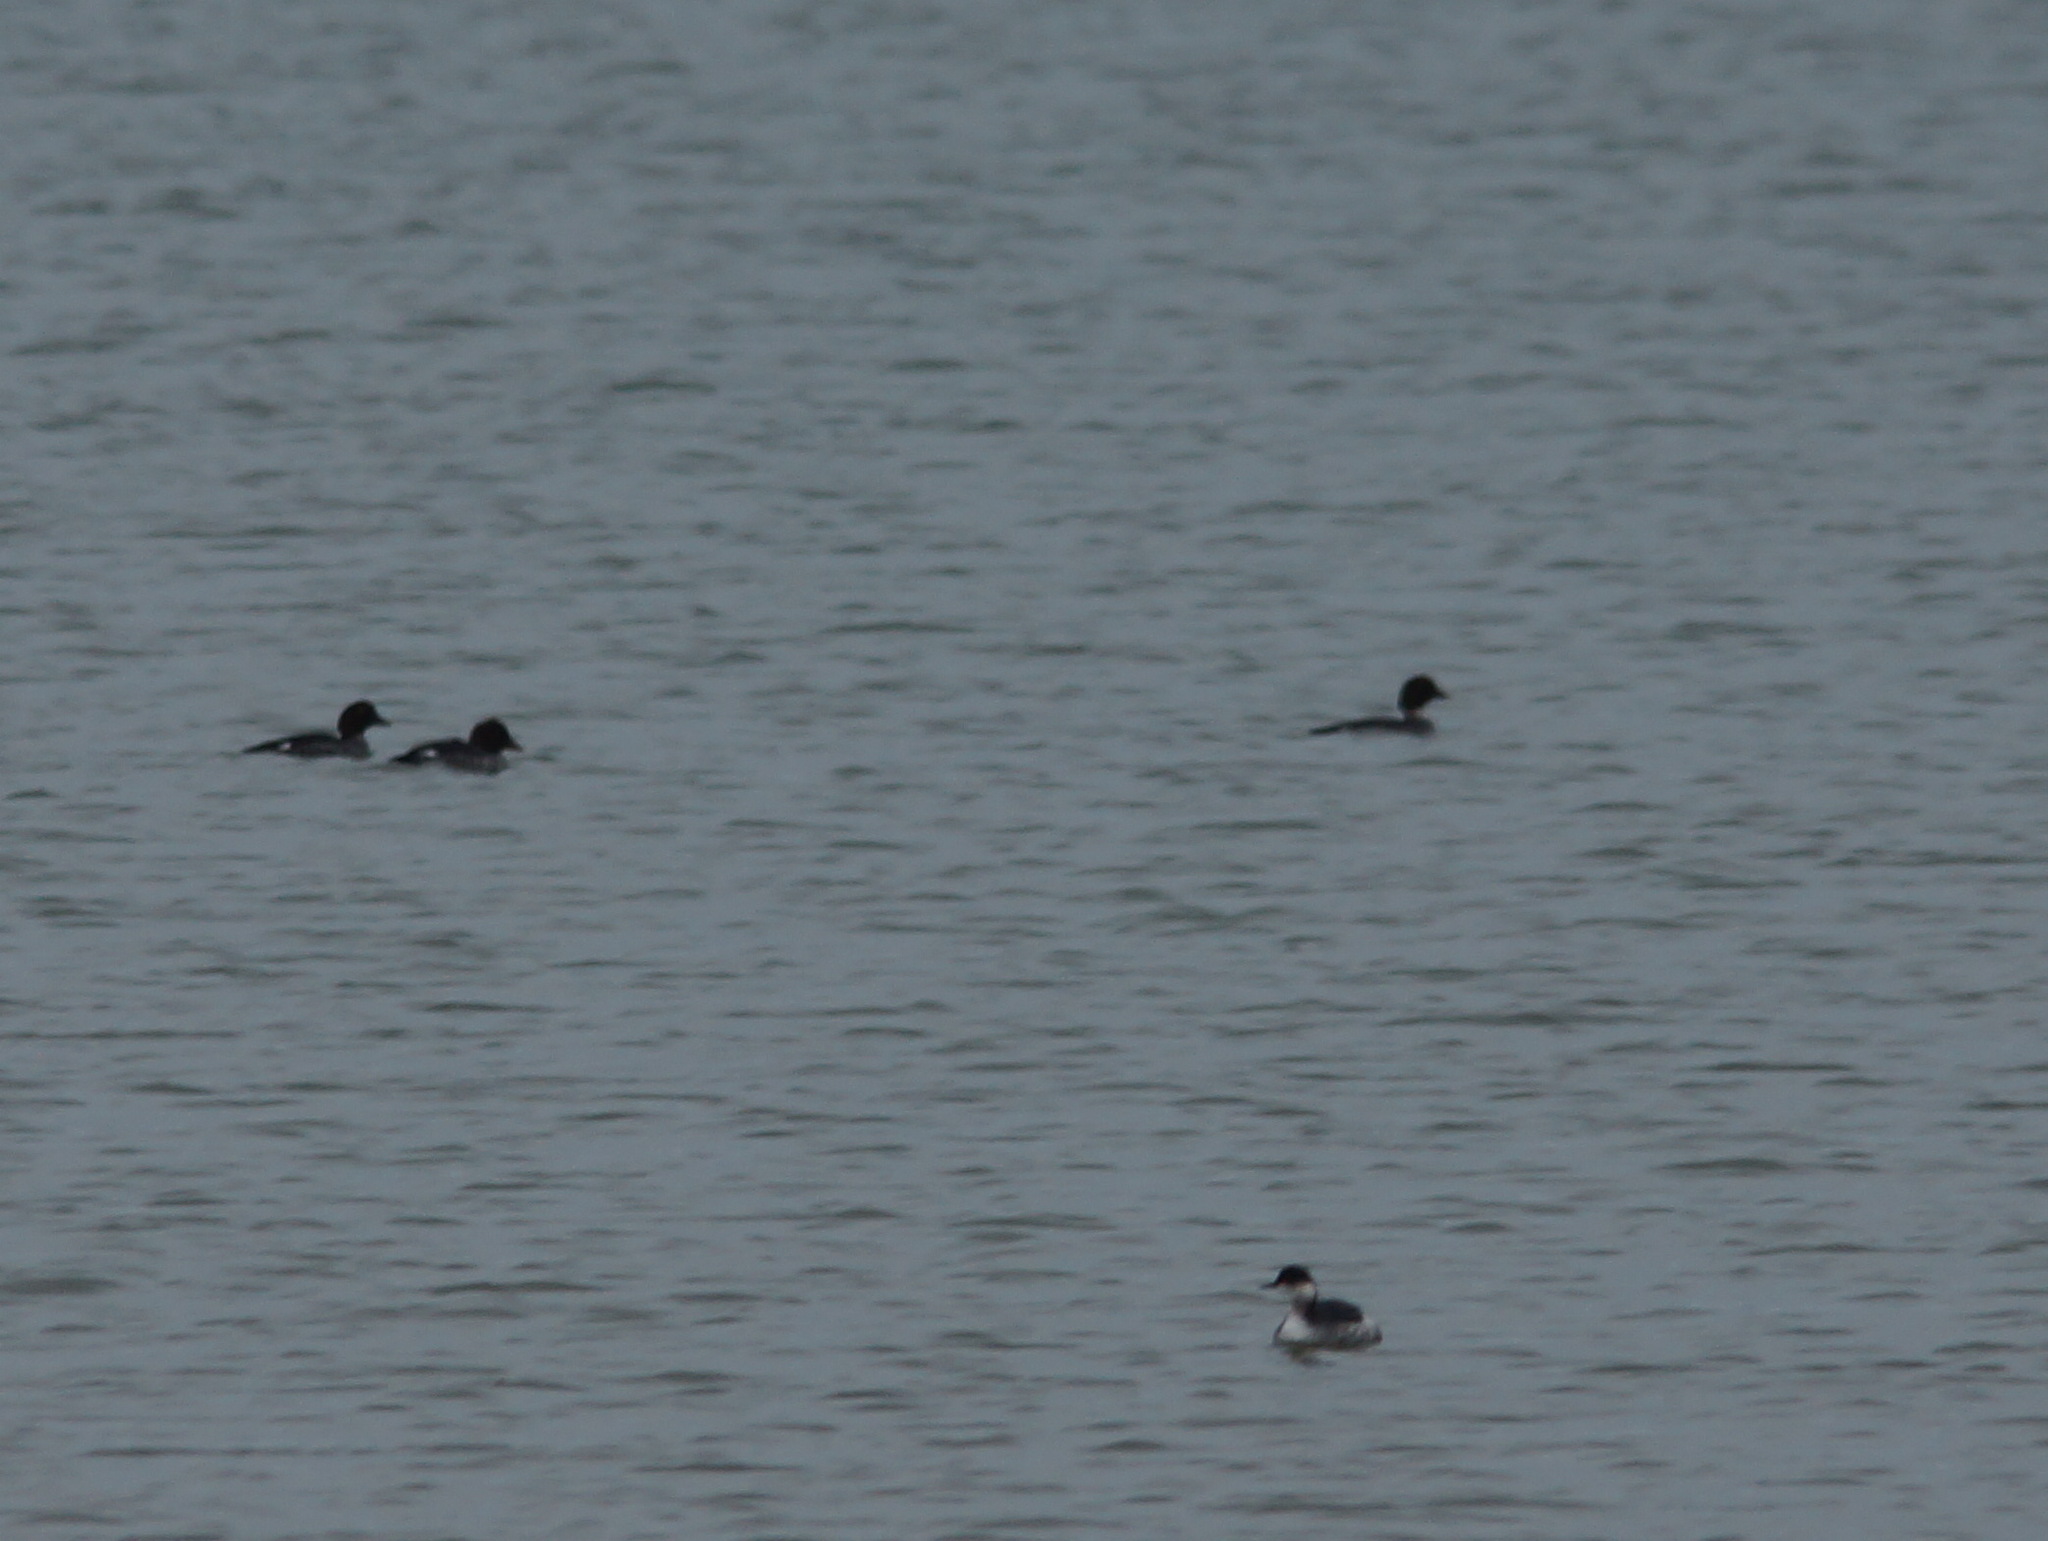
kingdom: Animalia
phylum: Chordata
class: Aves
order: Podicipediformes
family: Podicipedidae
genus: Podiceps
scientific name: Podiceps nigricollis
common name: Black-necked grebe
